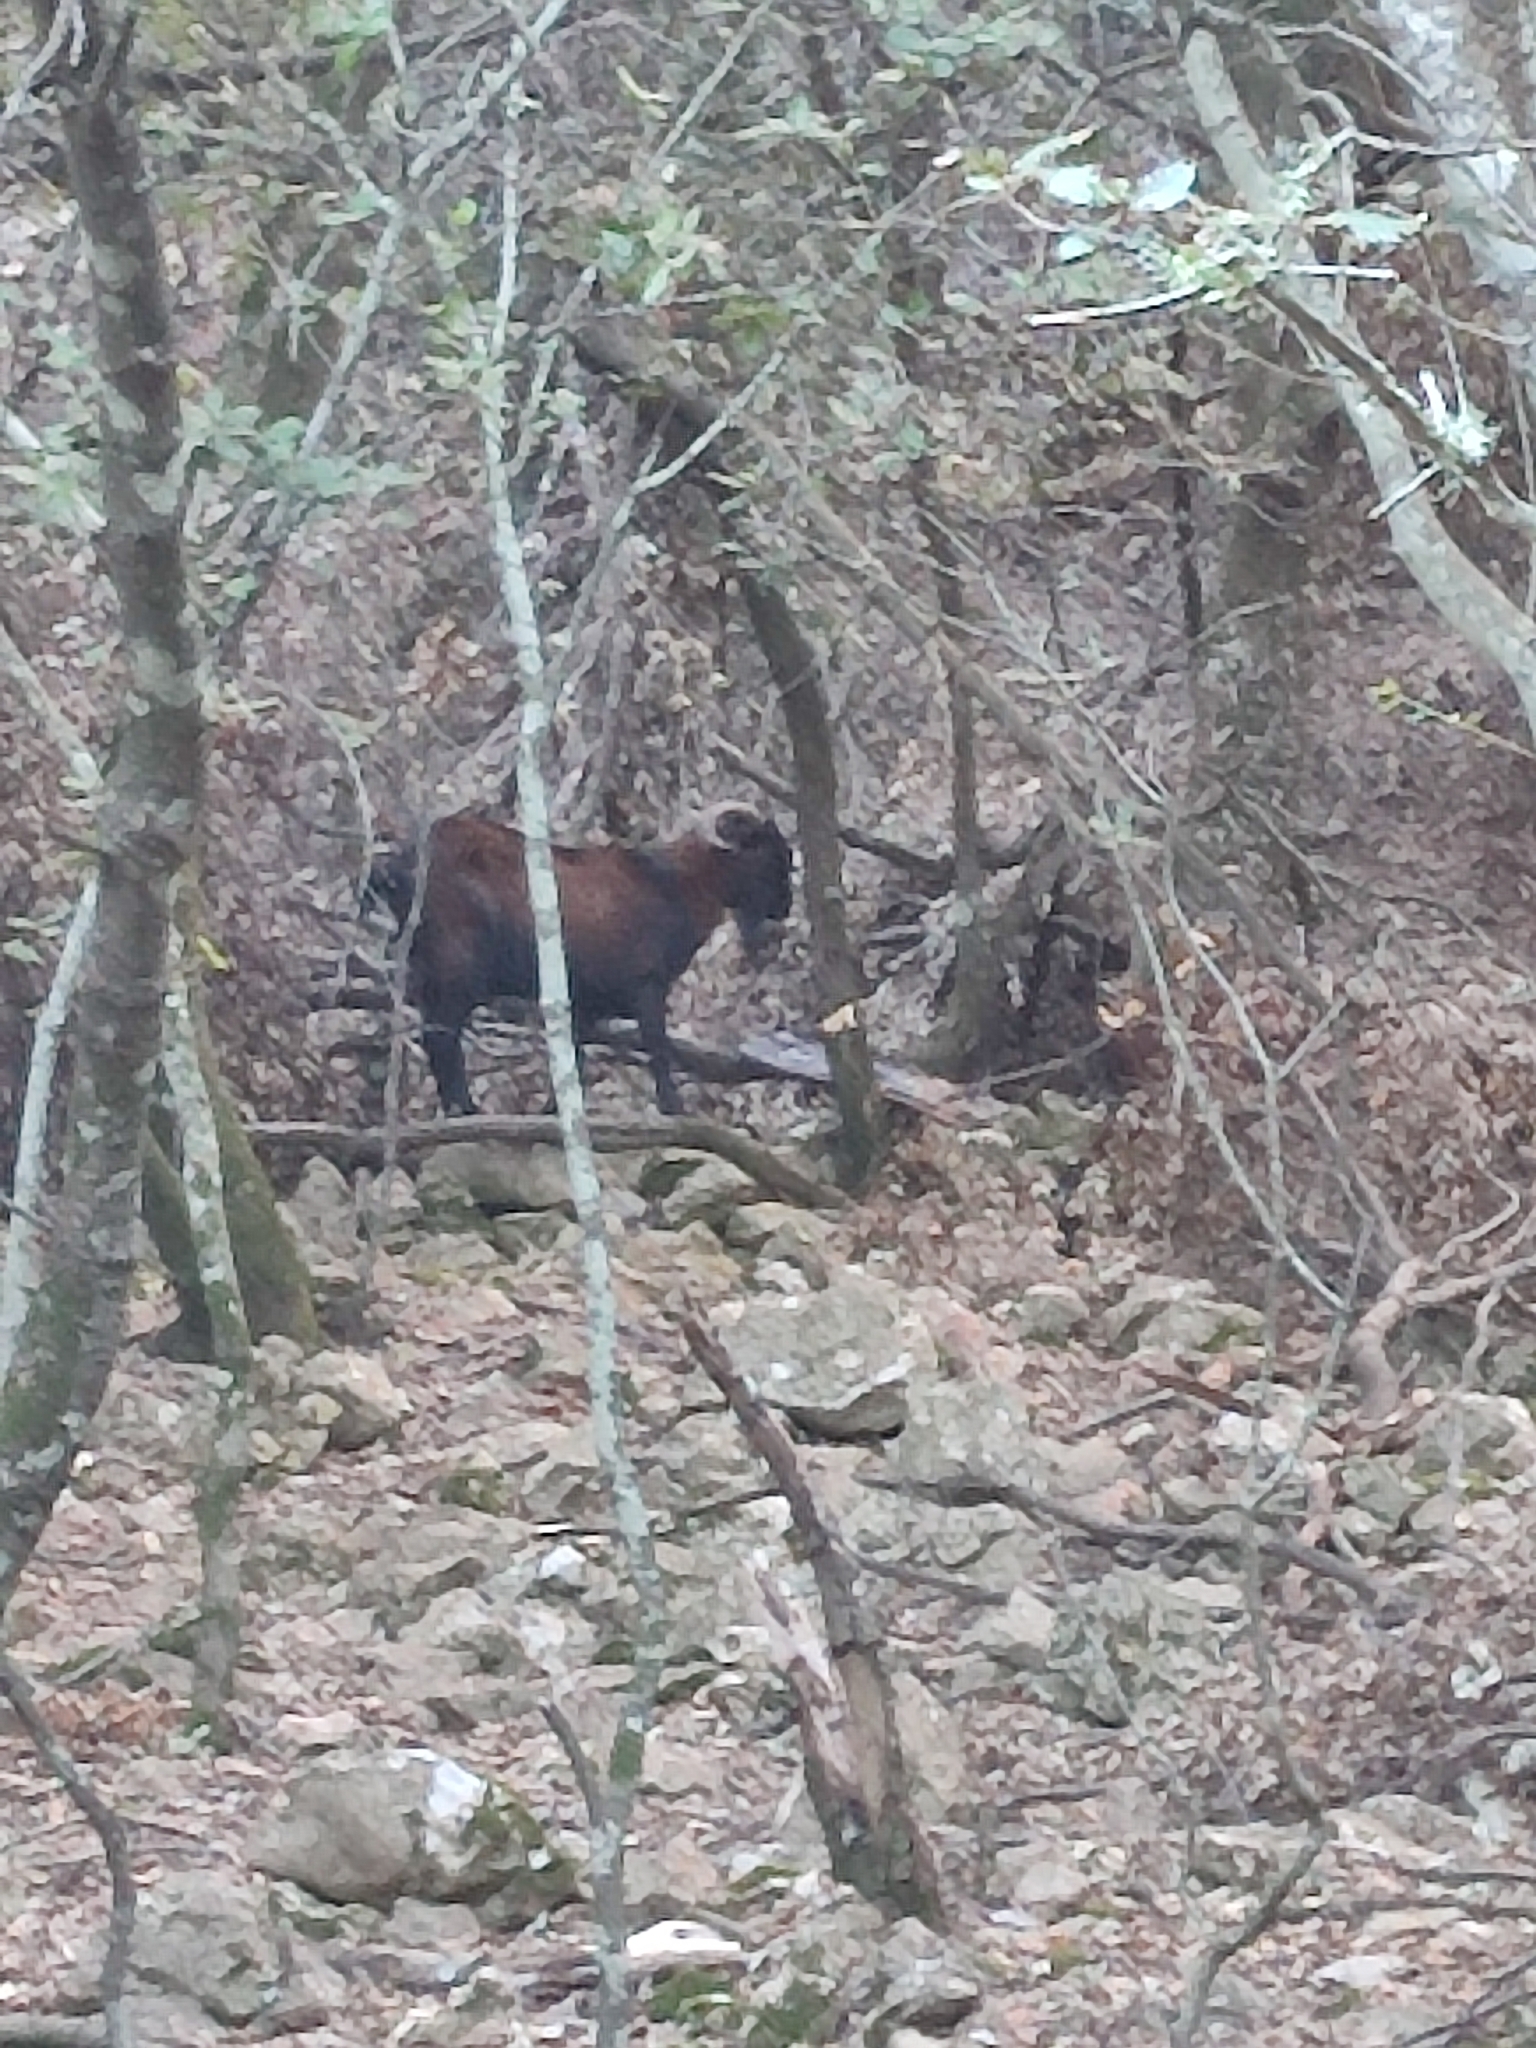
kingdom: Animalia
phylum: Chordata
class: Mammalia
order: Artiodactyla
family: Bovidae
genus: Capra
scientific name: Capra hircus
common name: Domestic goat
